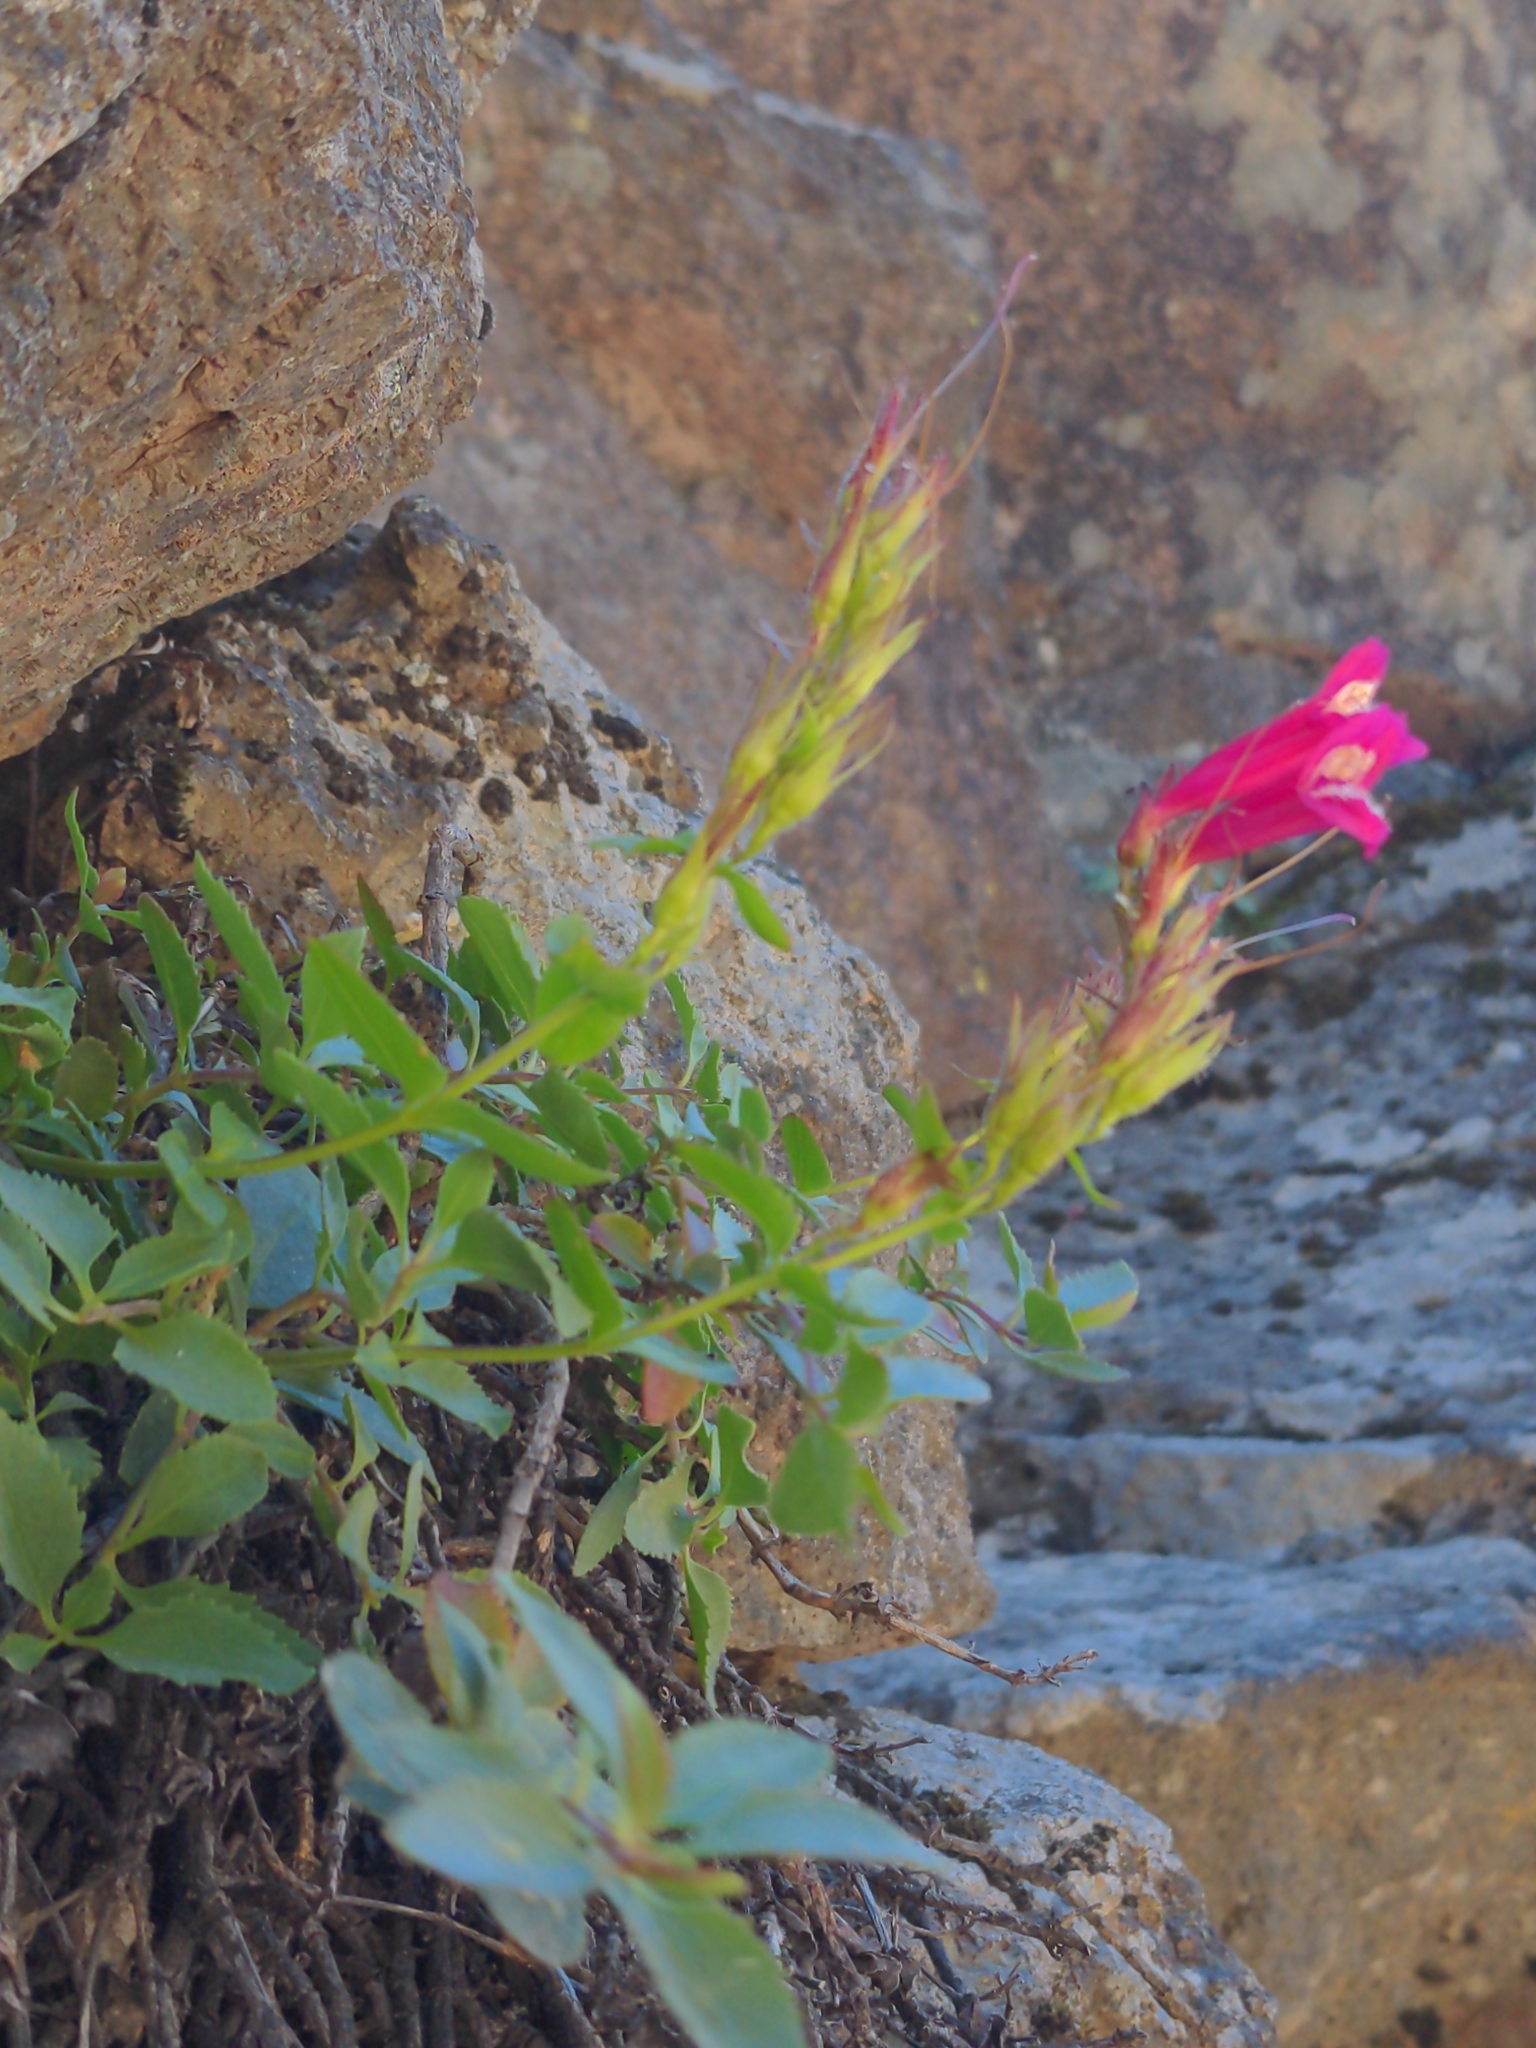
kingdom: Plantae
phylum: Tracheophyta
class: Magnoliopsida
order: Lamiales
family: Plantaginaceae
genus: Penstemon
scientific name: Penstemon newberryi
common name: Mountain-pride
